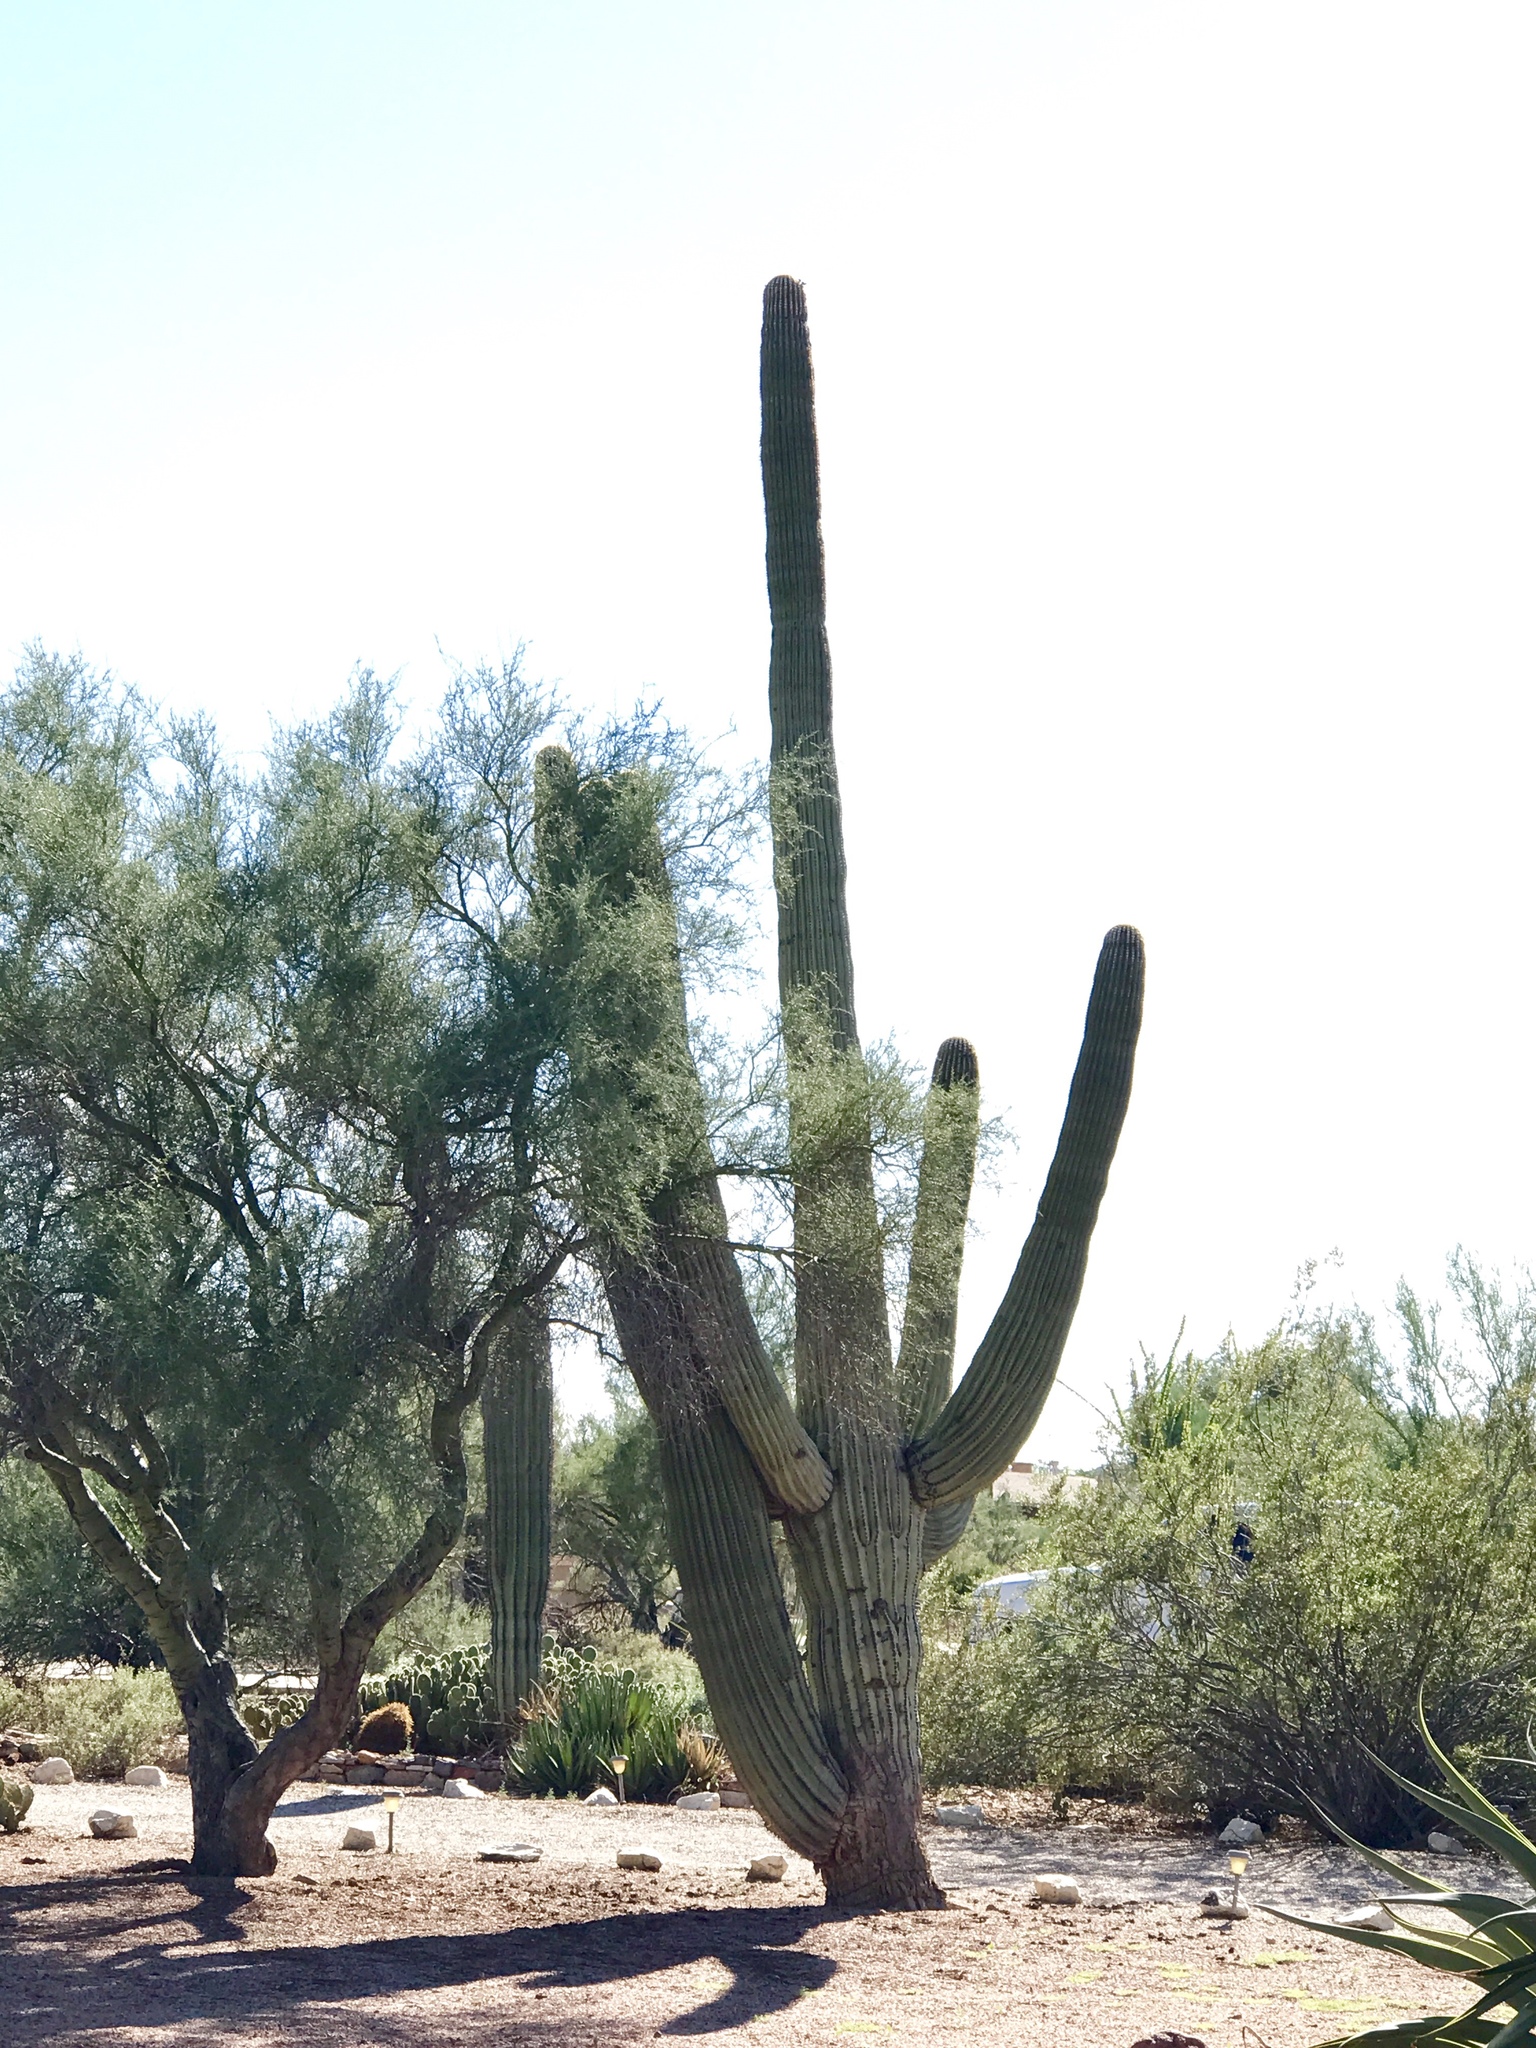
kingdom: Plantae
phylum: Tracheophyta
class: Magnoliopsida
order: Caryophyllales
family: Cactaceae
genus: Carnegiea
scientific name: Carnegiea gigantea
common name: Saguaro
